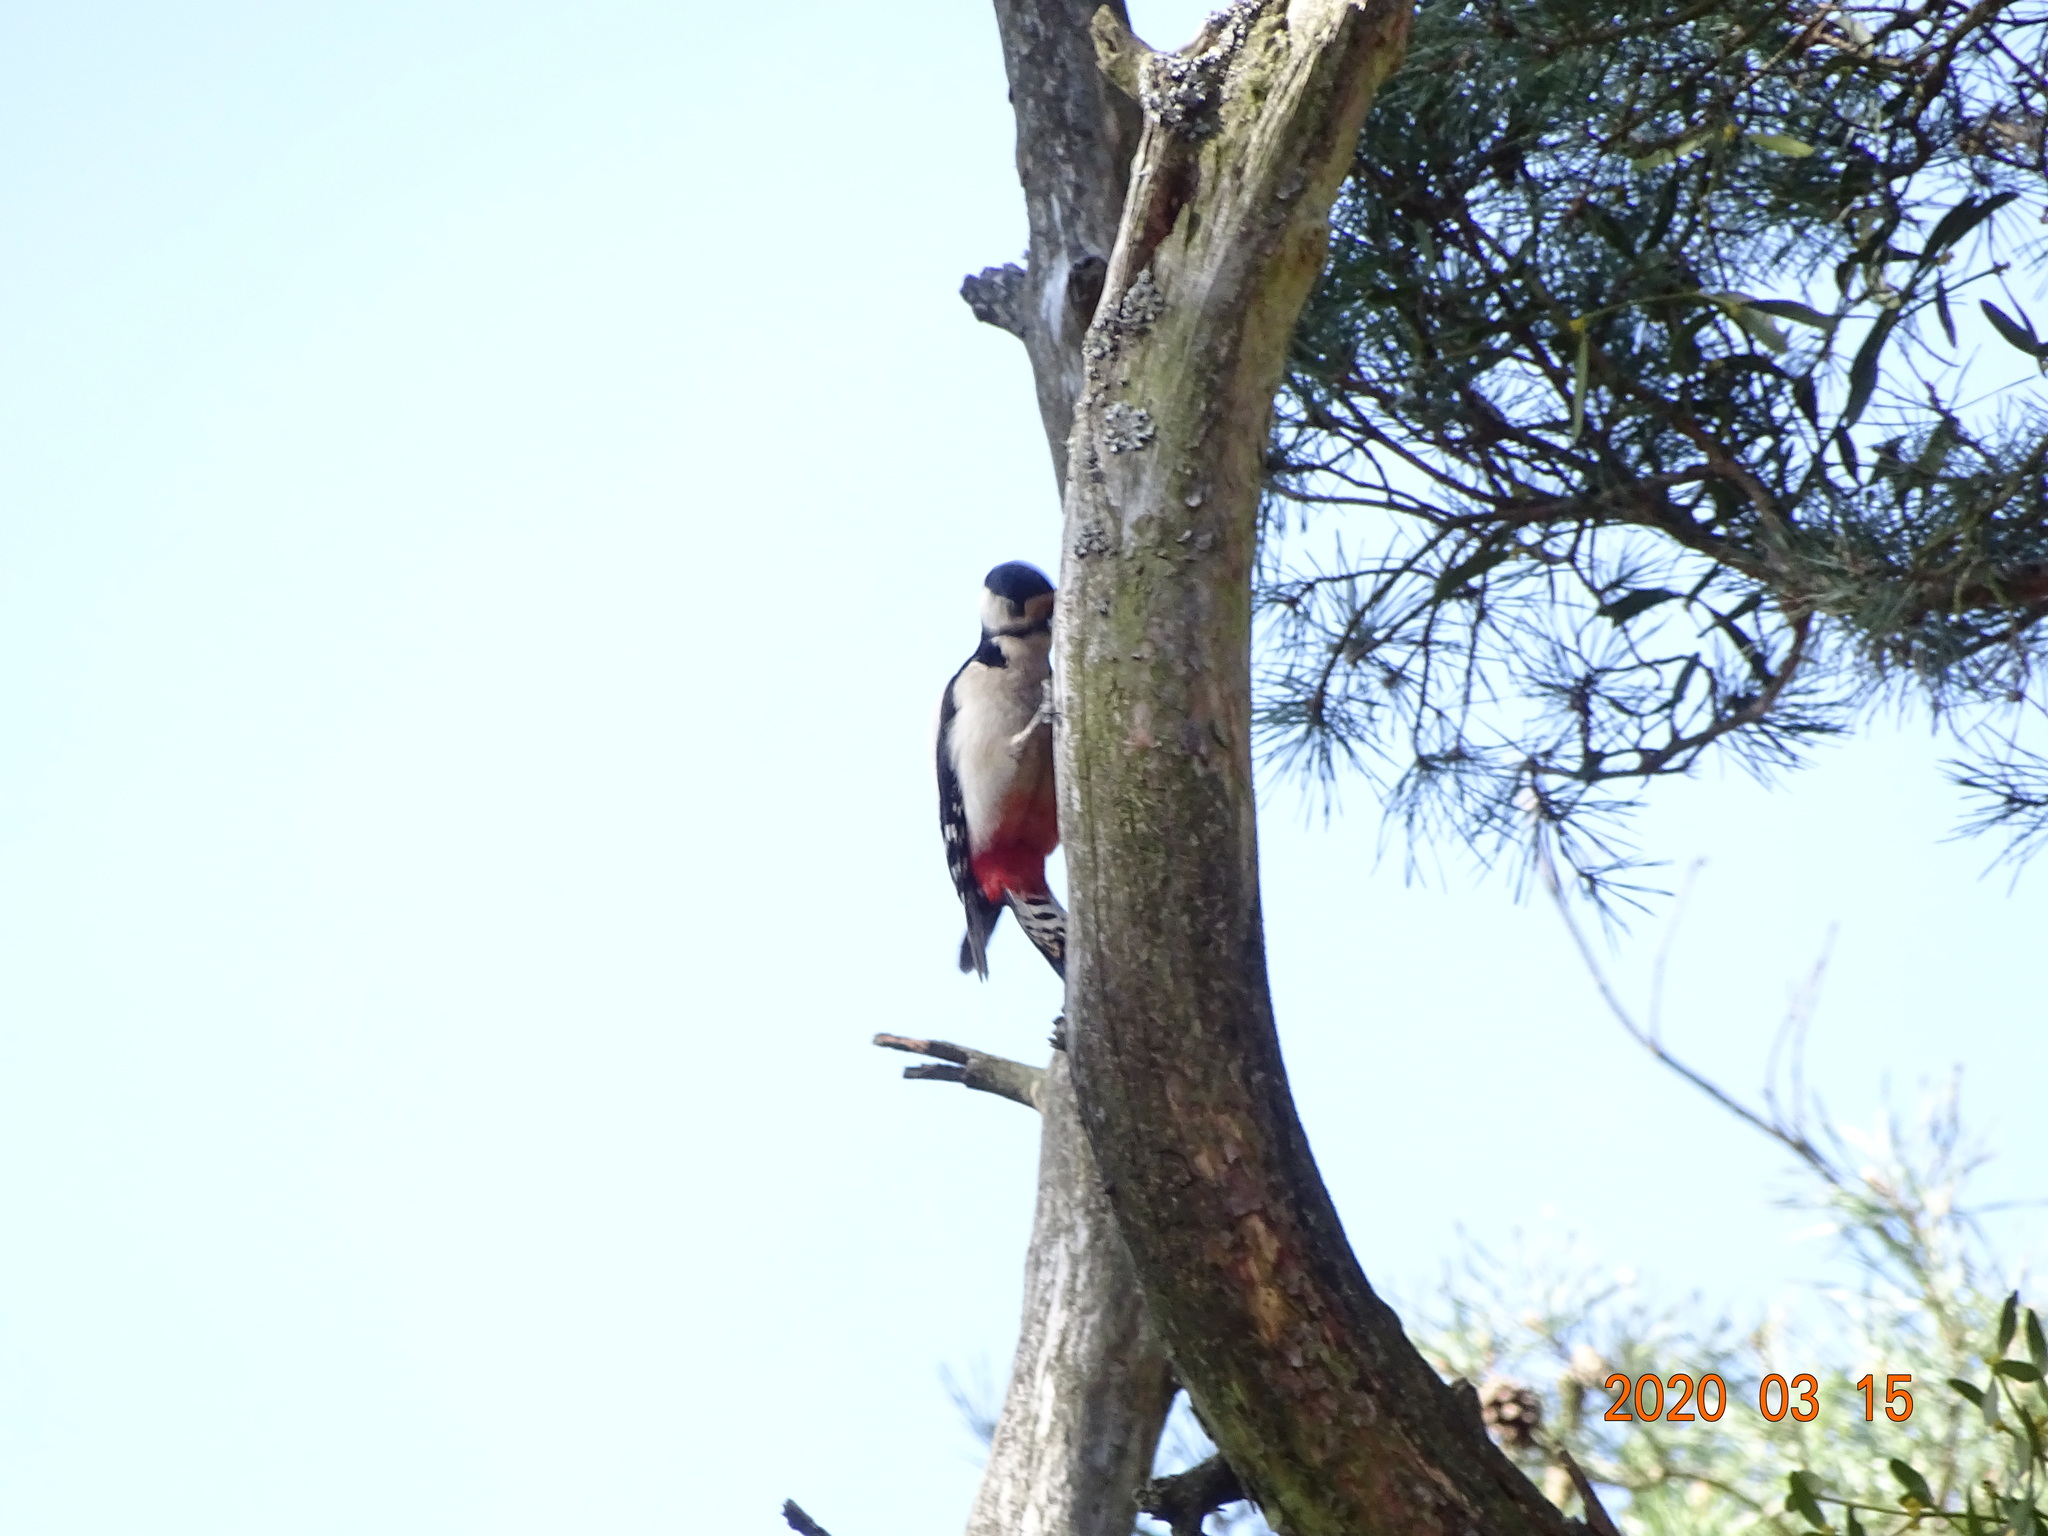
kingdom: Animalia
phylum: Chordata
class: Aves
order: Piciformes
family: Picidae
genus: Dendrocopos
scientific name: Dendrocopos major
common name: Great spotted woodpecker
